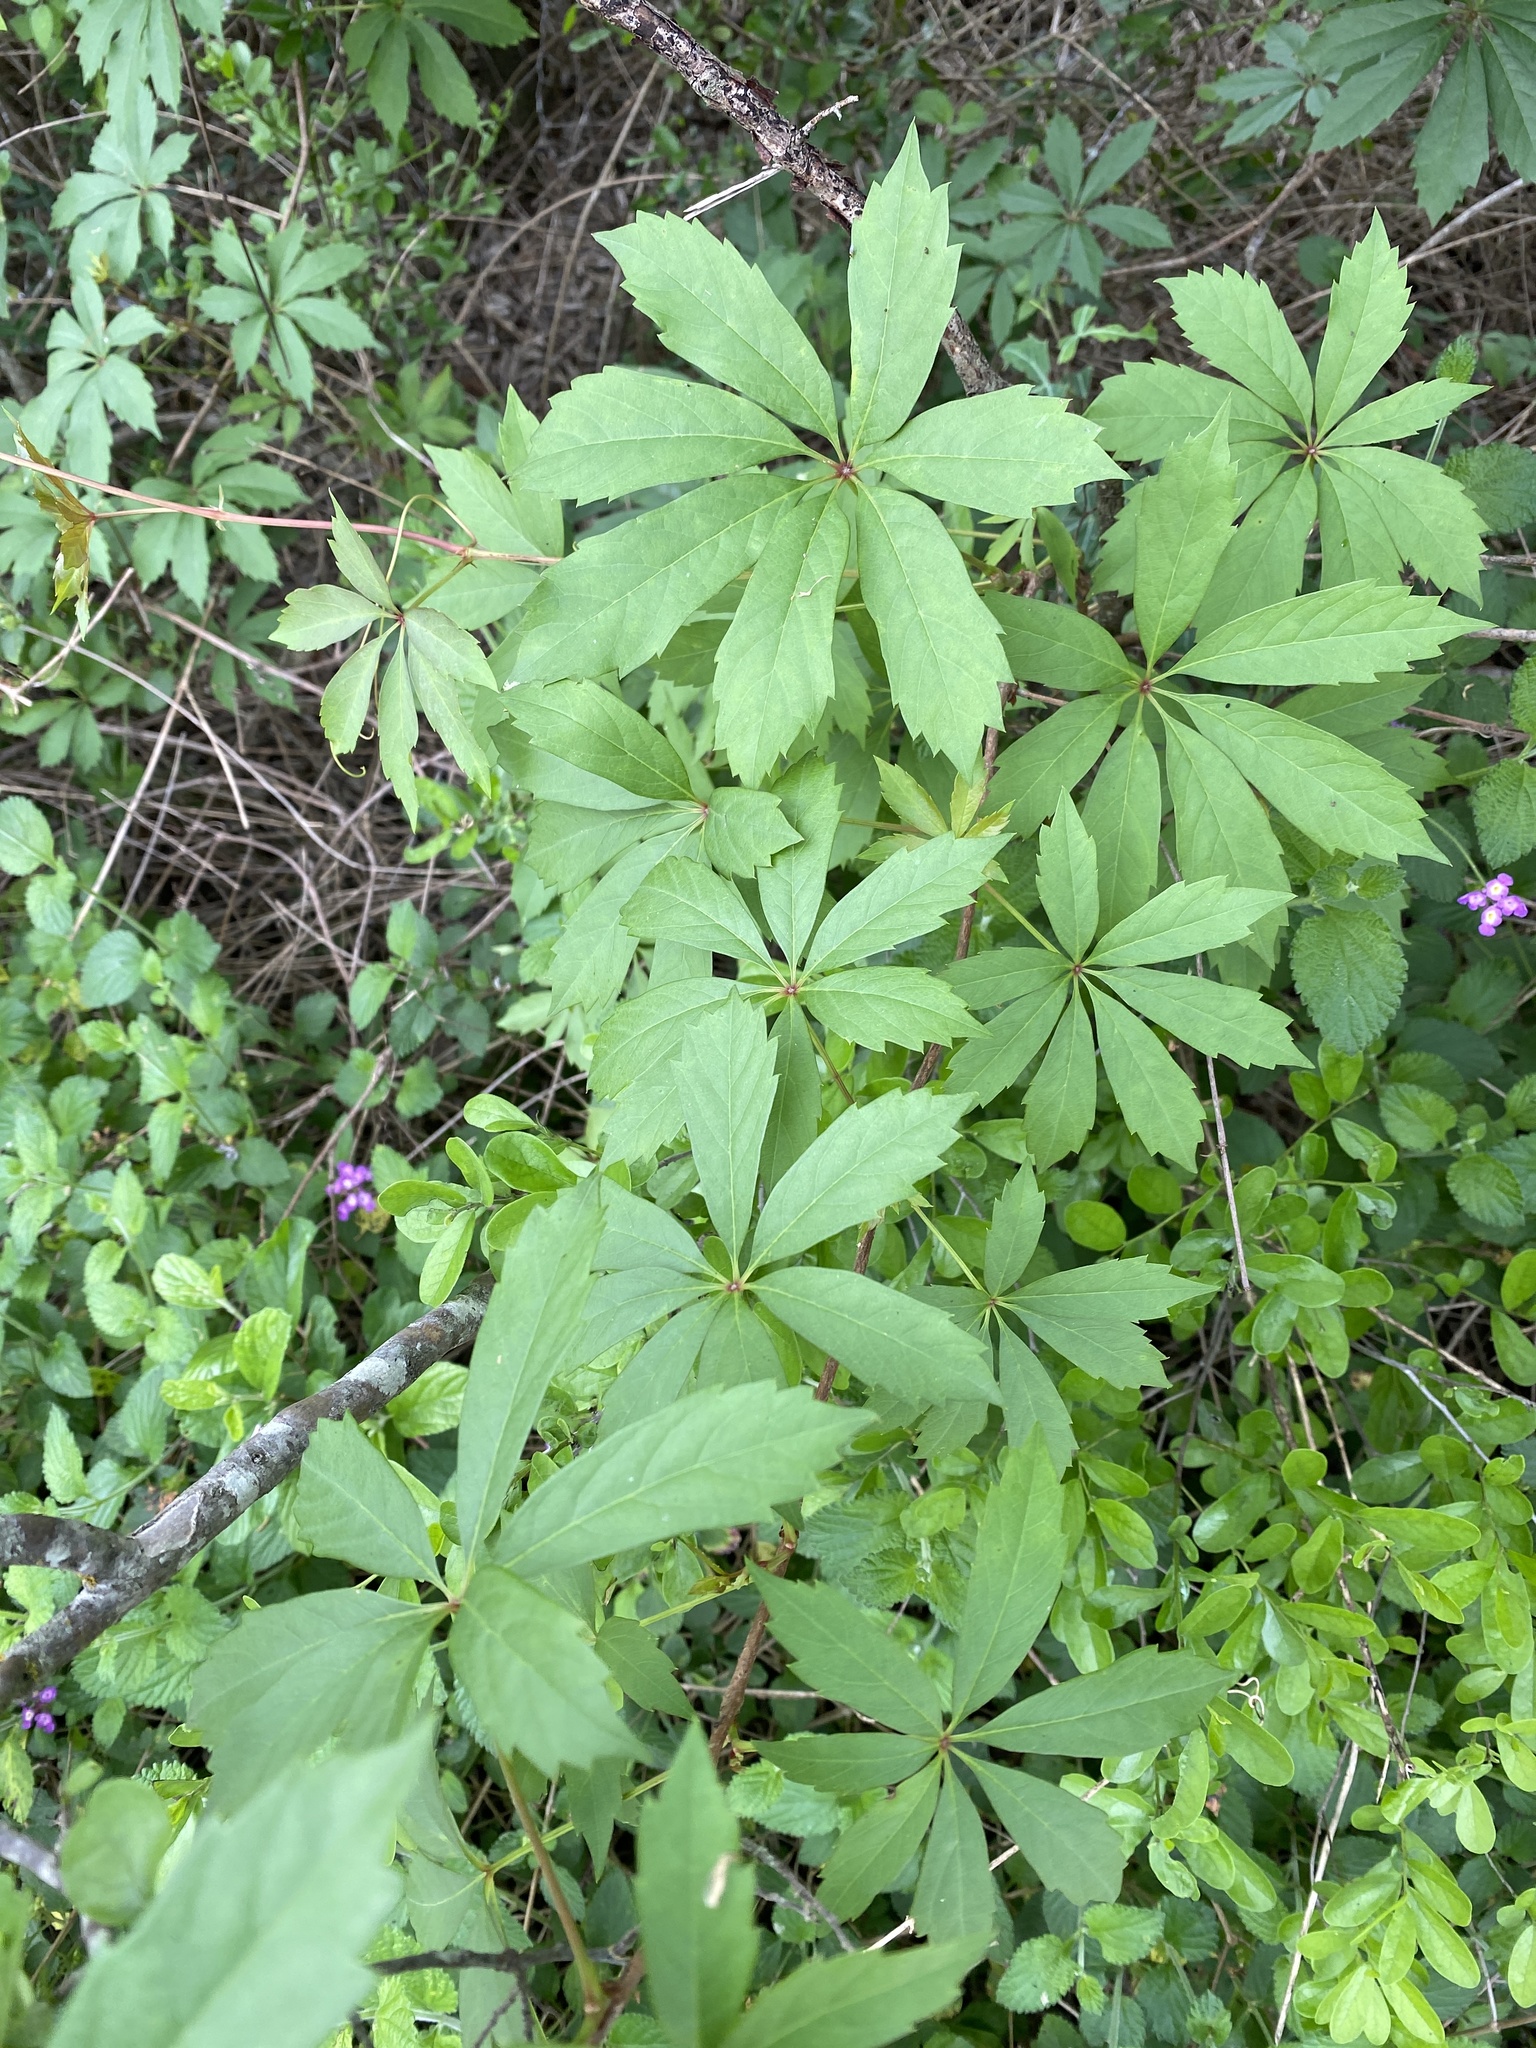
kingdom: Plantae
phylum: Tracheophyta
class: Magnoliopsida
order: Vitales
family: Vitaceae
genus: Parthenocissus
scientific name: Parthenocissus heptaphylla
